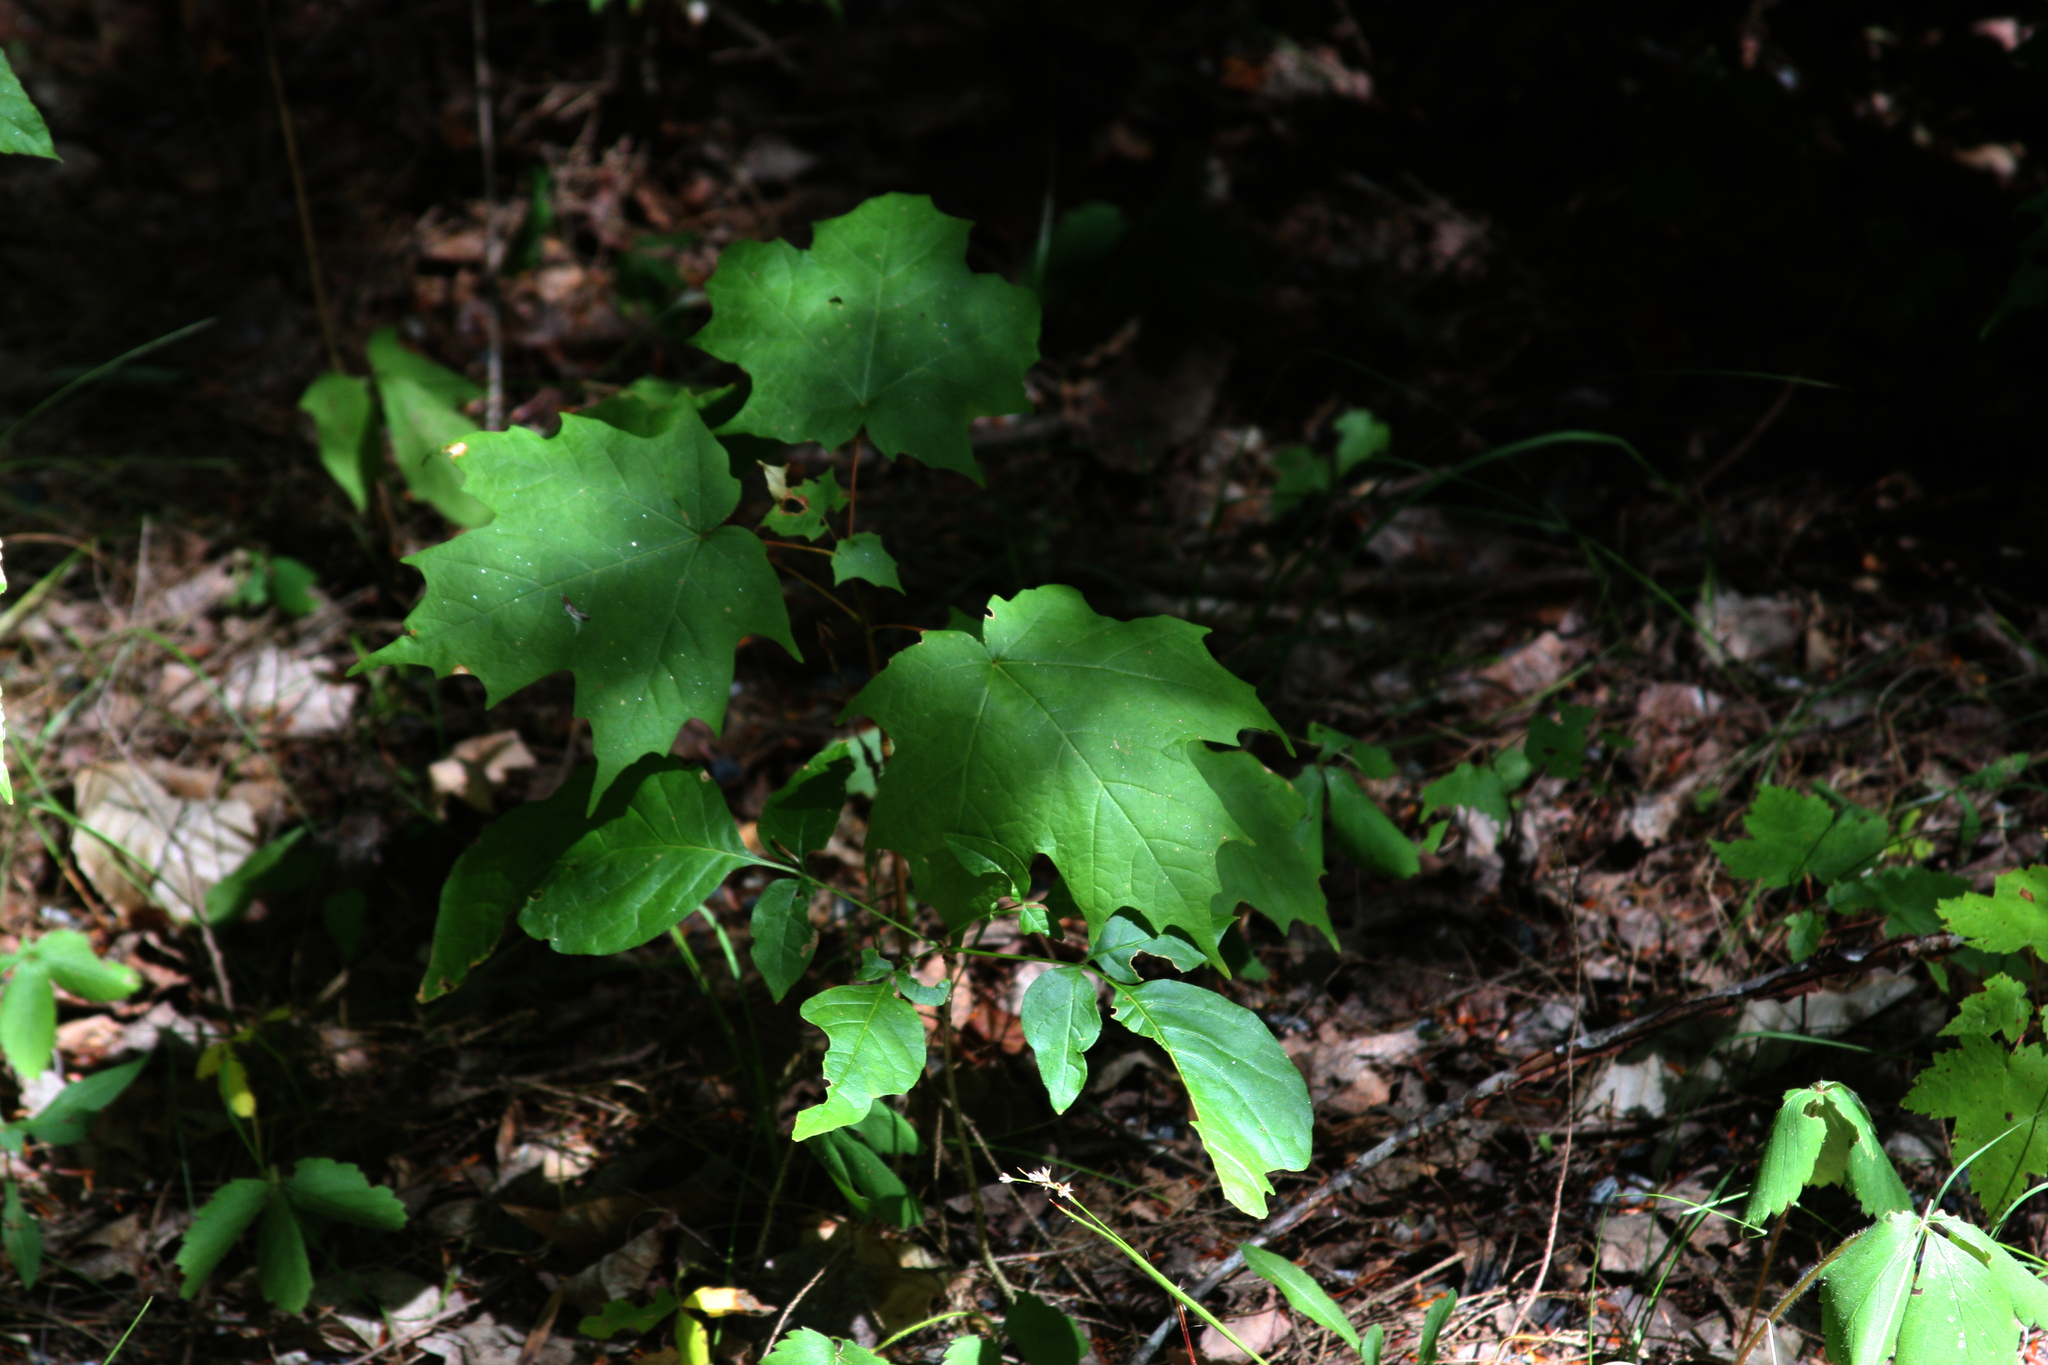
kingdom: Plantae
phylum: Tracheophyta
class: Magnoliopsida
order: Sapindales
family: Sapindaceae
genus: Acer
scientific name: Acer saccharum
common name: Sugar maple
